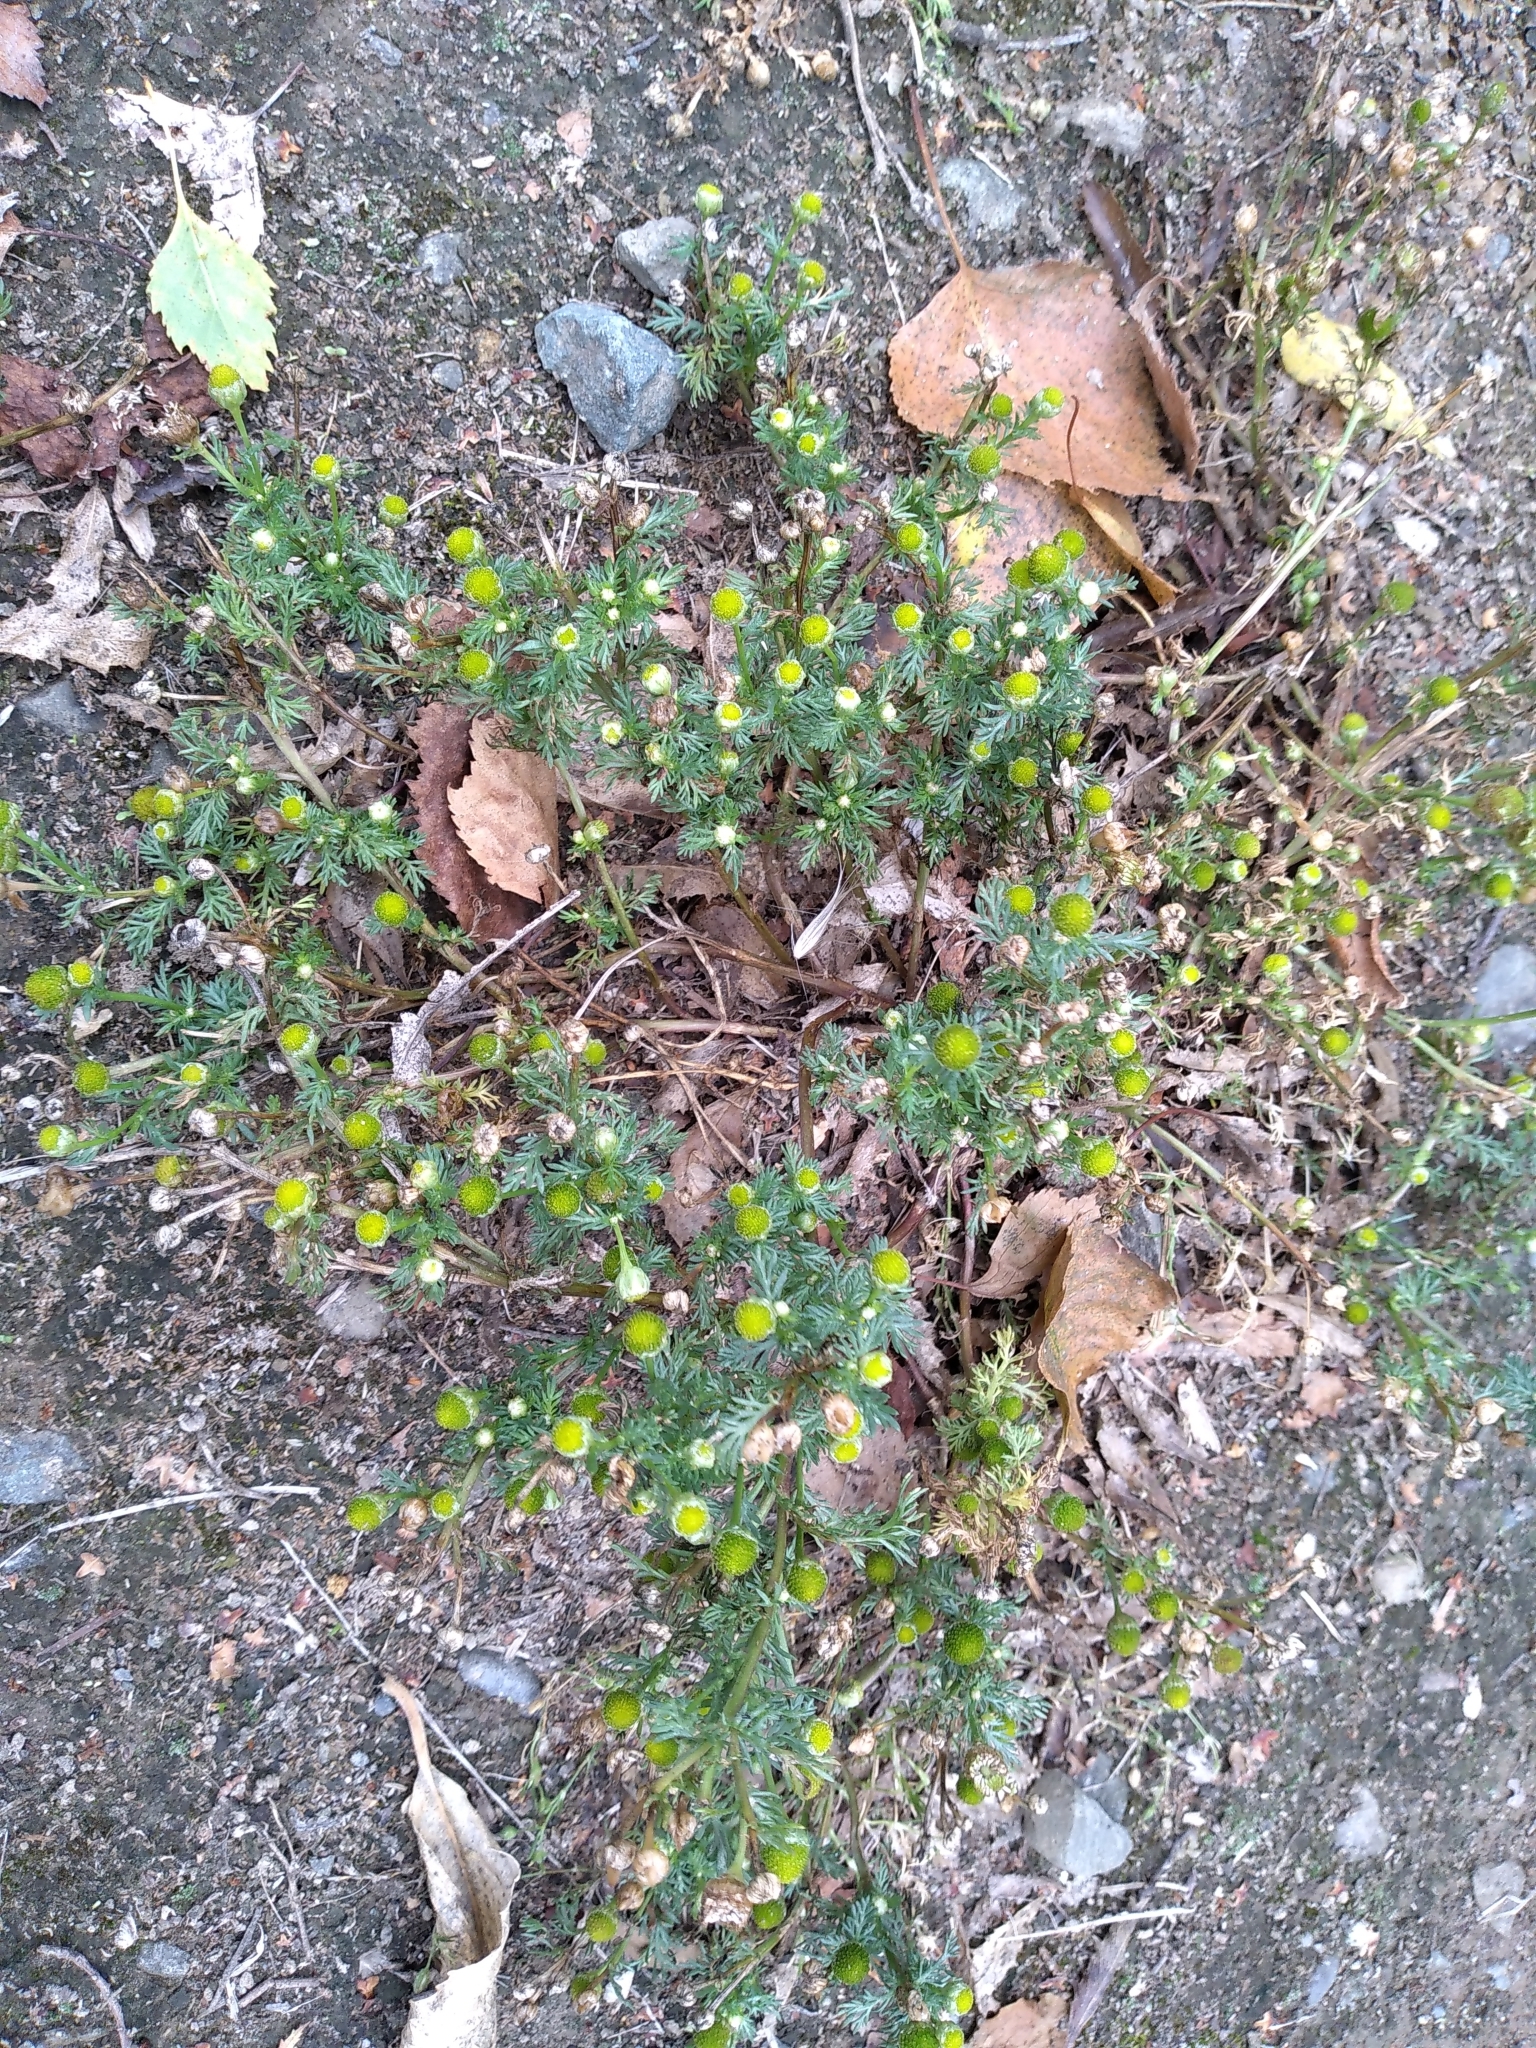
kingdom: Plantae
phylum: Tracheophyta
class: Magnoliopsida
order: Asterales
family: Asteraceae
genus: Matricaria
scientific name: Matricaria discoidea
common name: Disc mayweed
